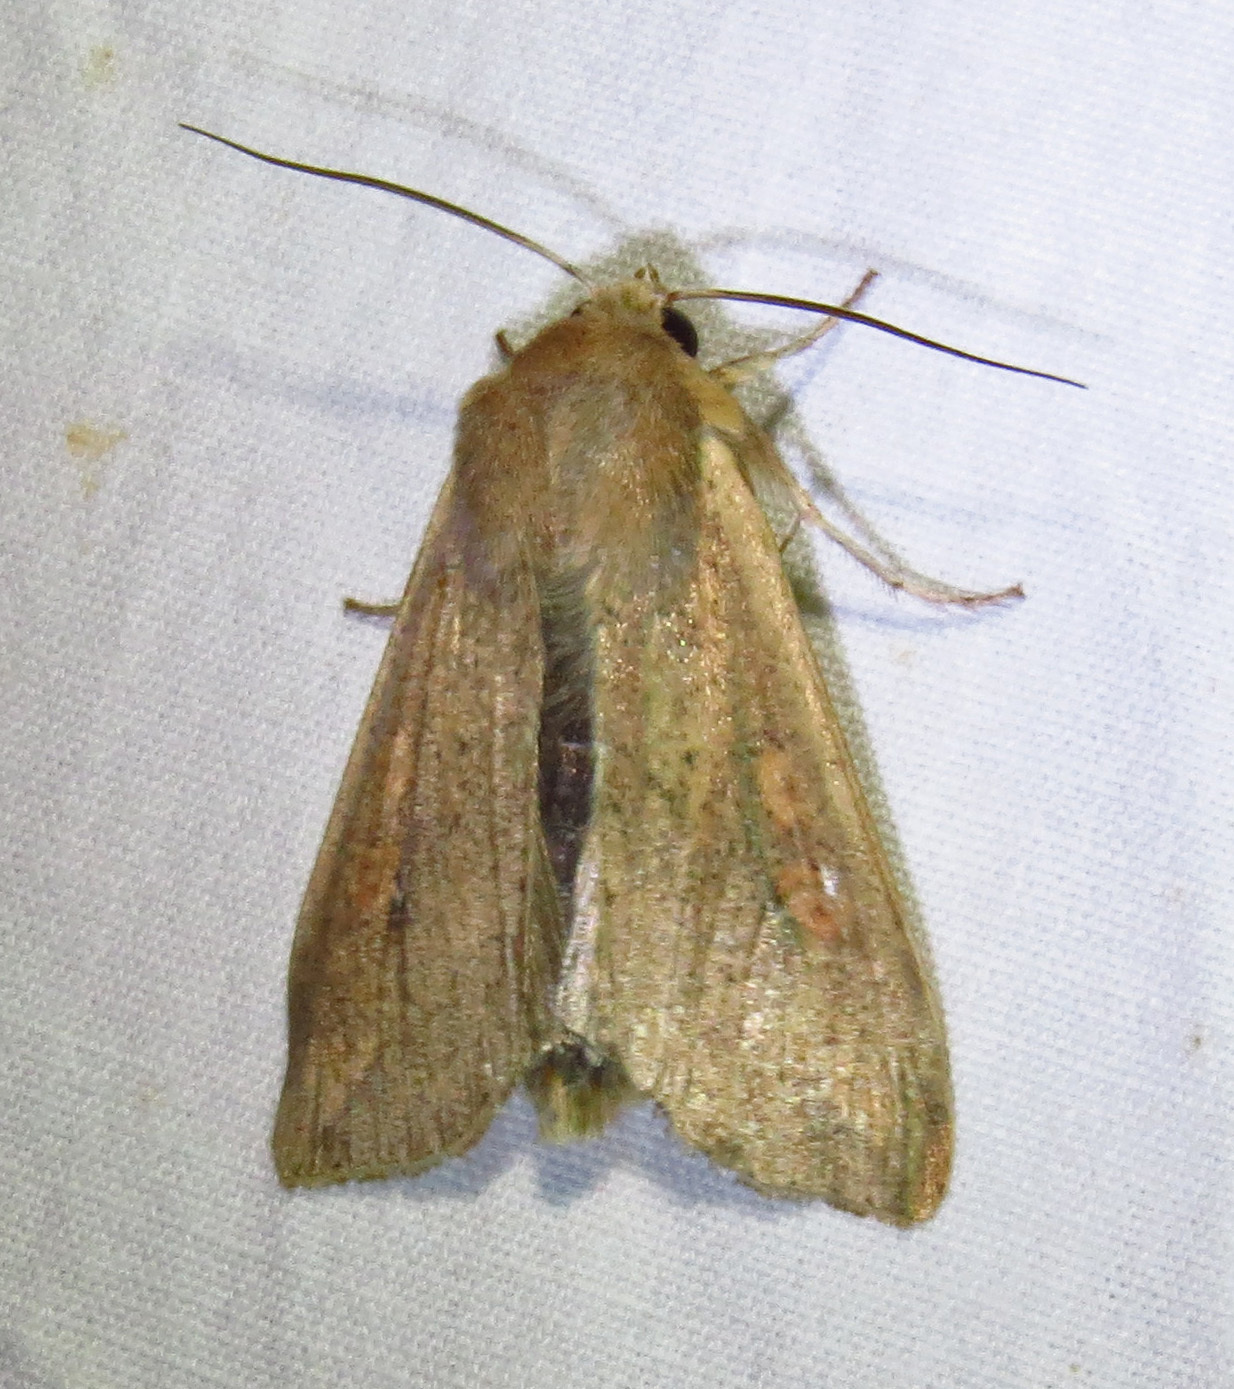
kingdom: Animalia
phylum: Arthropoda
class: Insecta
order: Lepidoptera
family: Noctuidae
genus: Mythimna
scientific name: Mythimna unipuncta
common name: White-speck
